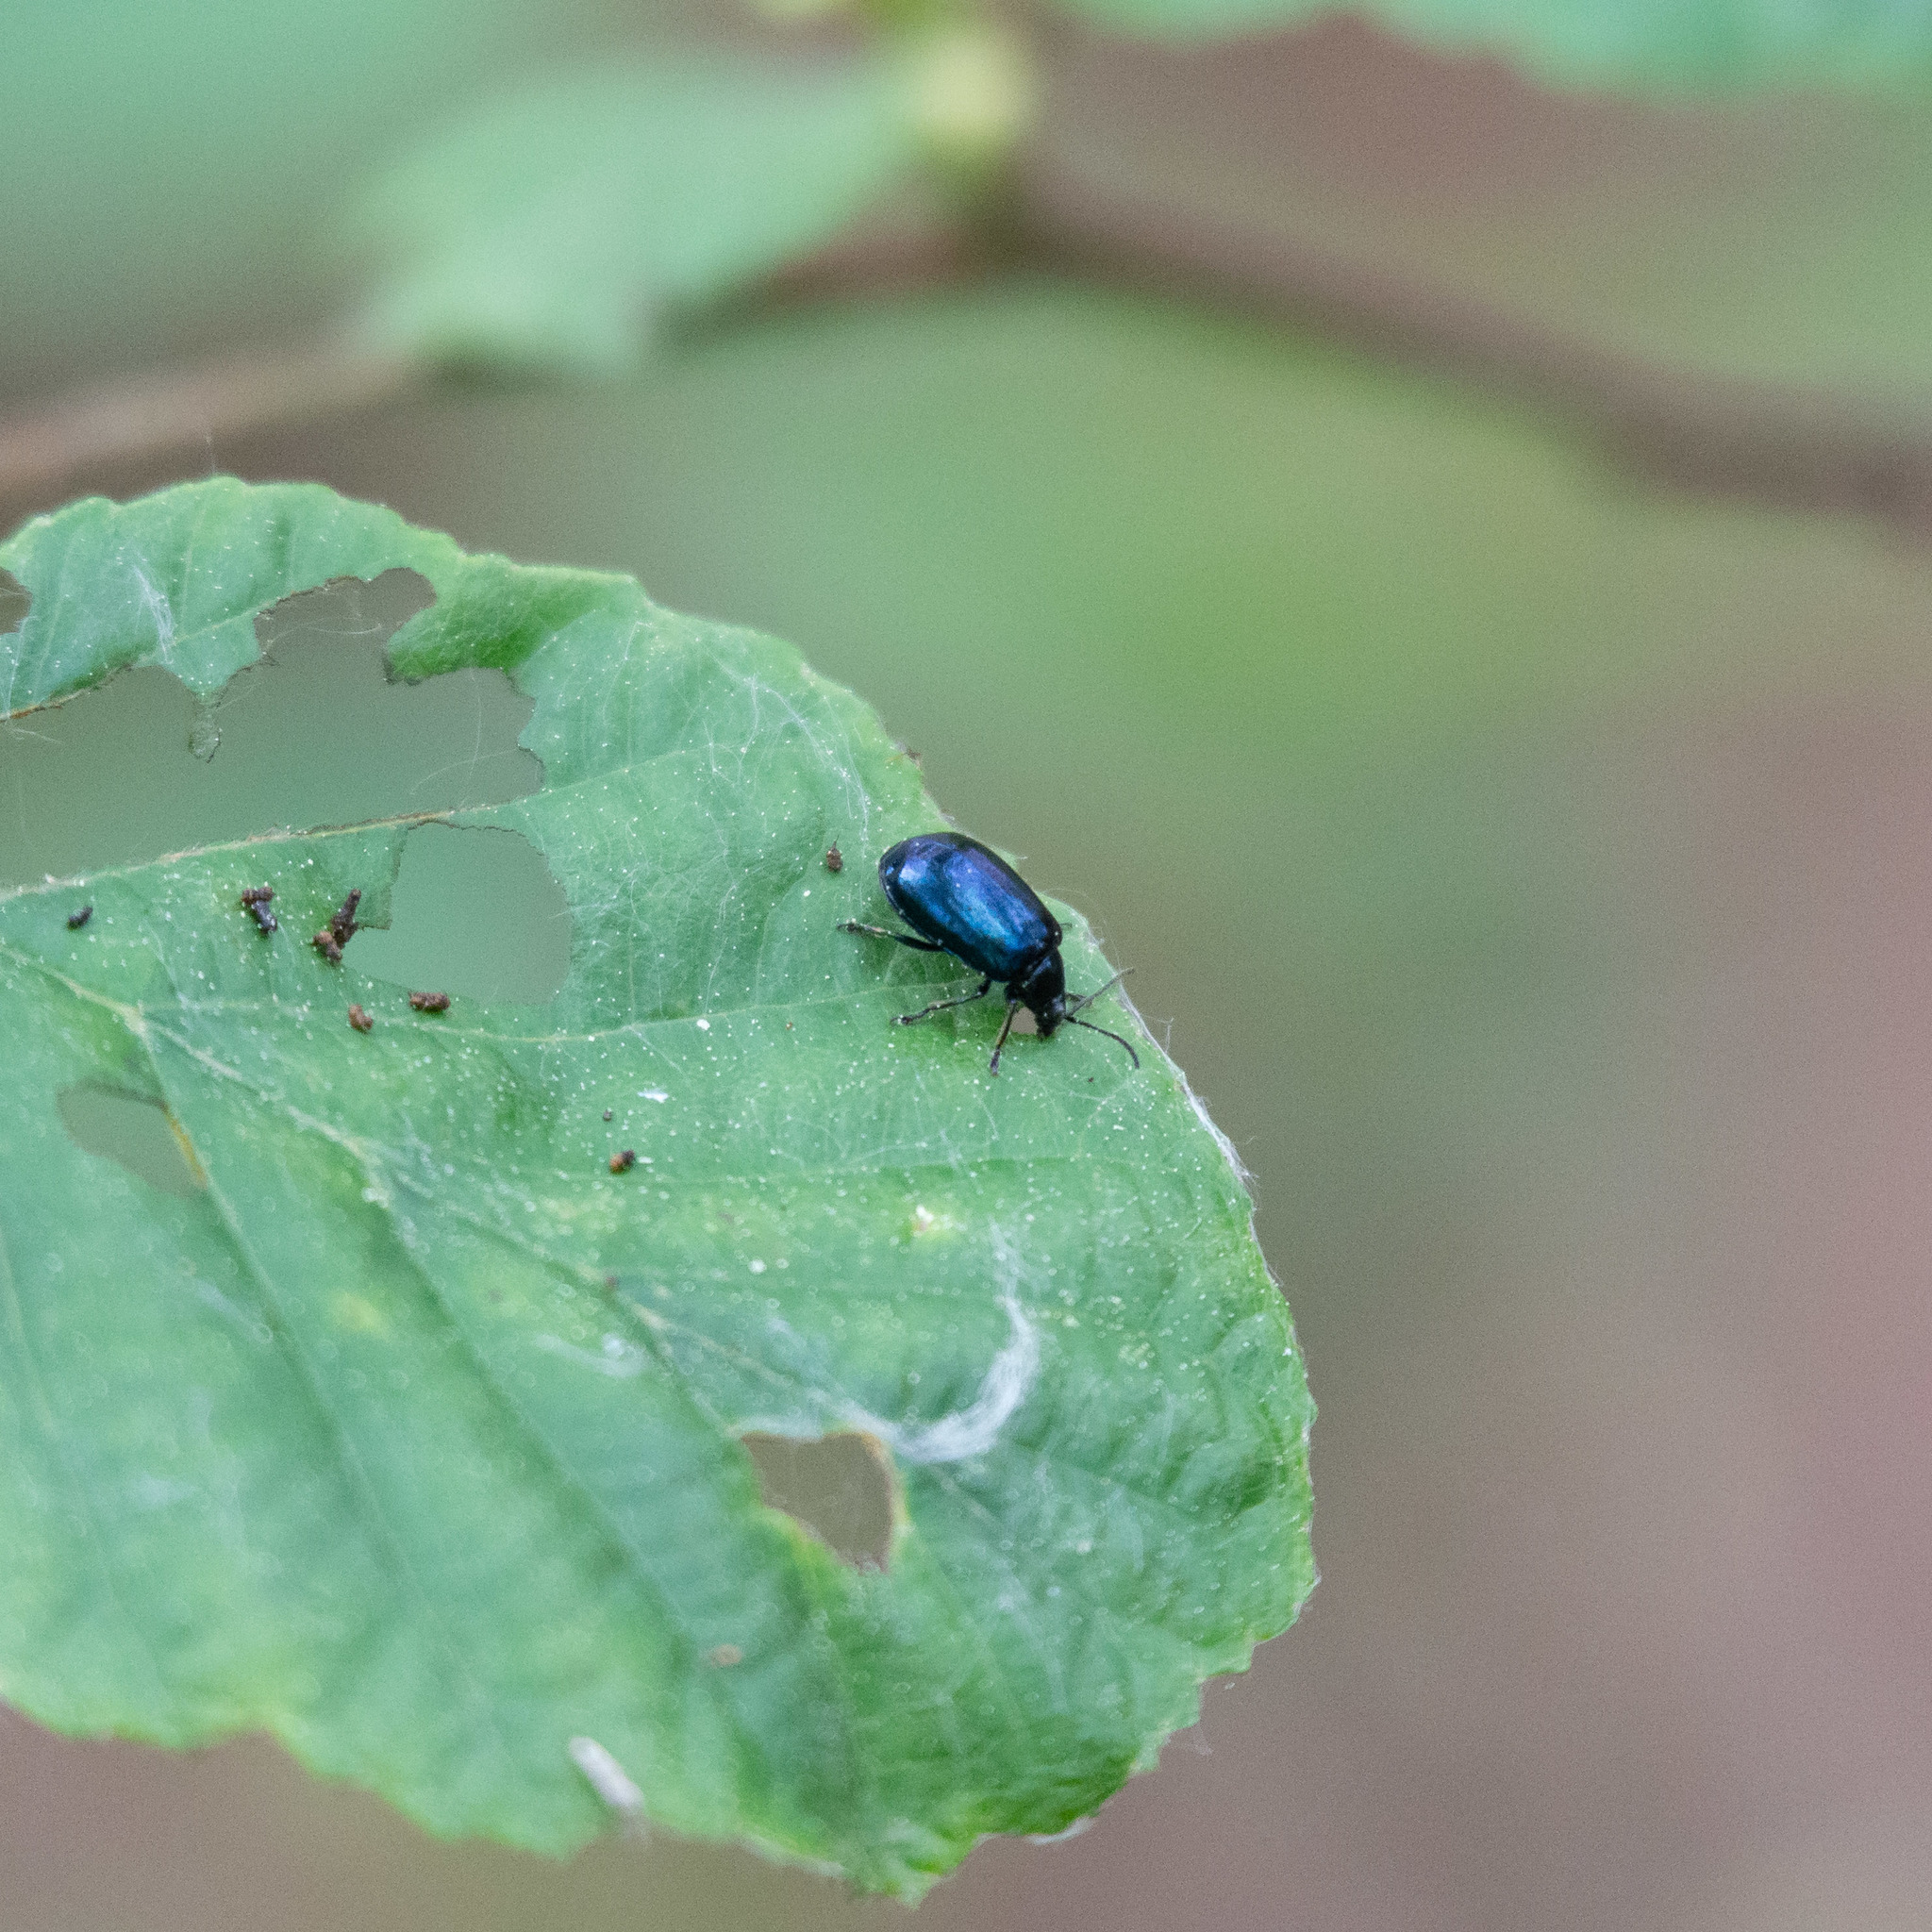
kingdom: Animalia
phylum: Arthropoda
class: Insecta
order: Coleoptera
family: Chrysomelidae
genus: Agelastica
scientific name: Agelastica alni
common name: Alder leaf beetle
